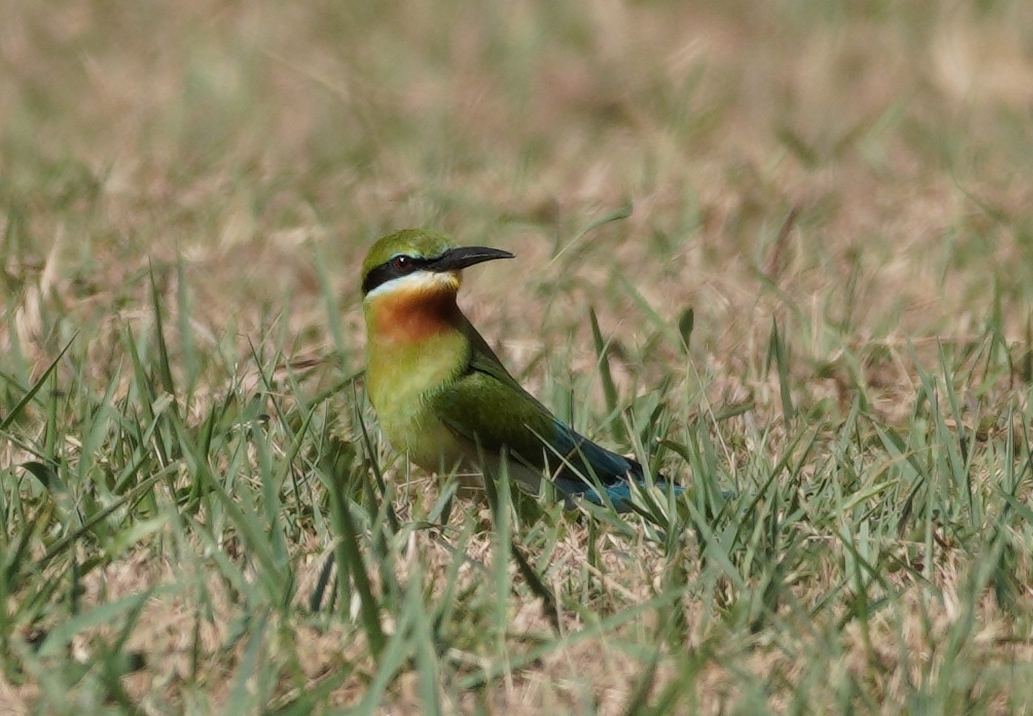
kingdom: Animalia
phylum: Chordata
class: Aves
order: Coraciiformes
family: Meropidae
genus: Merops
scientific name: Merops philippinus
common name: Blue-tailed bee-eater
